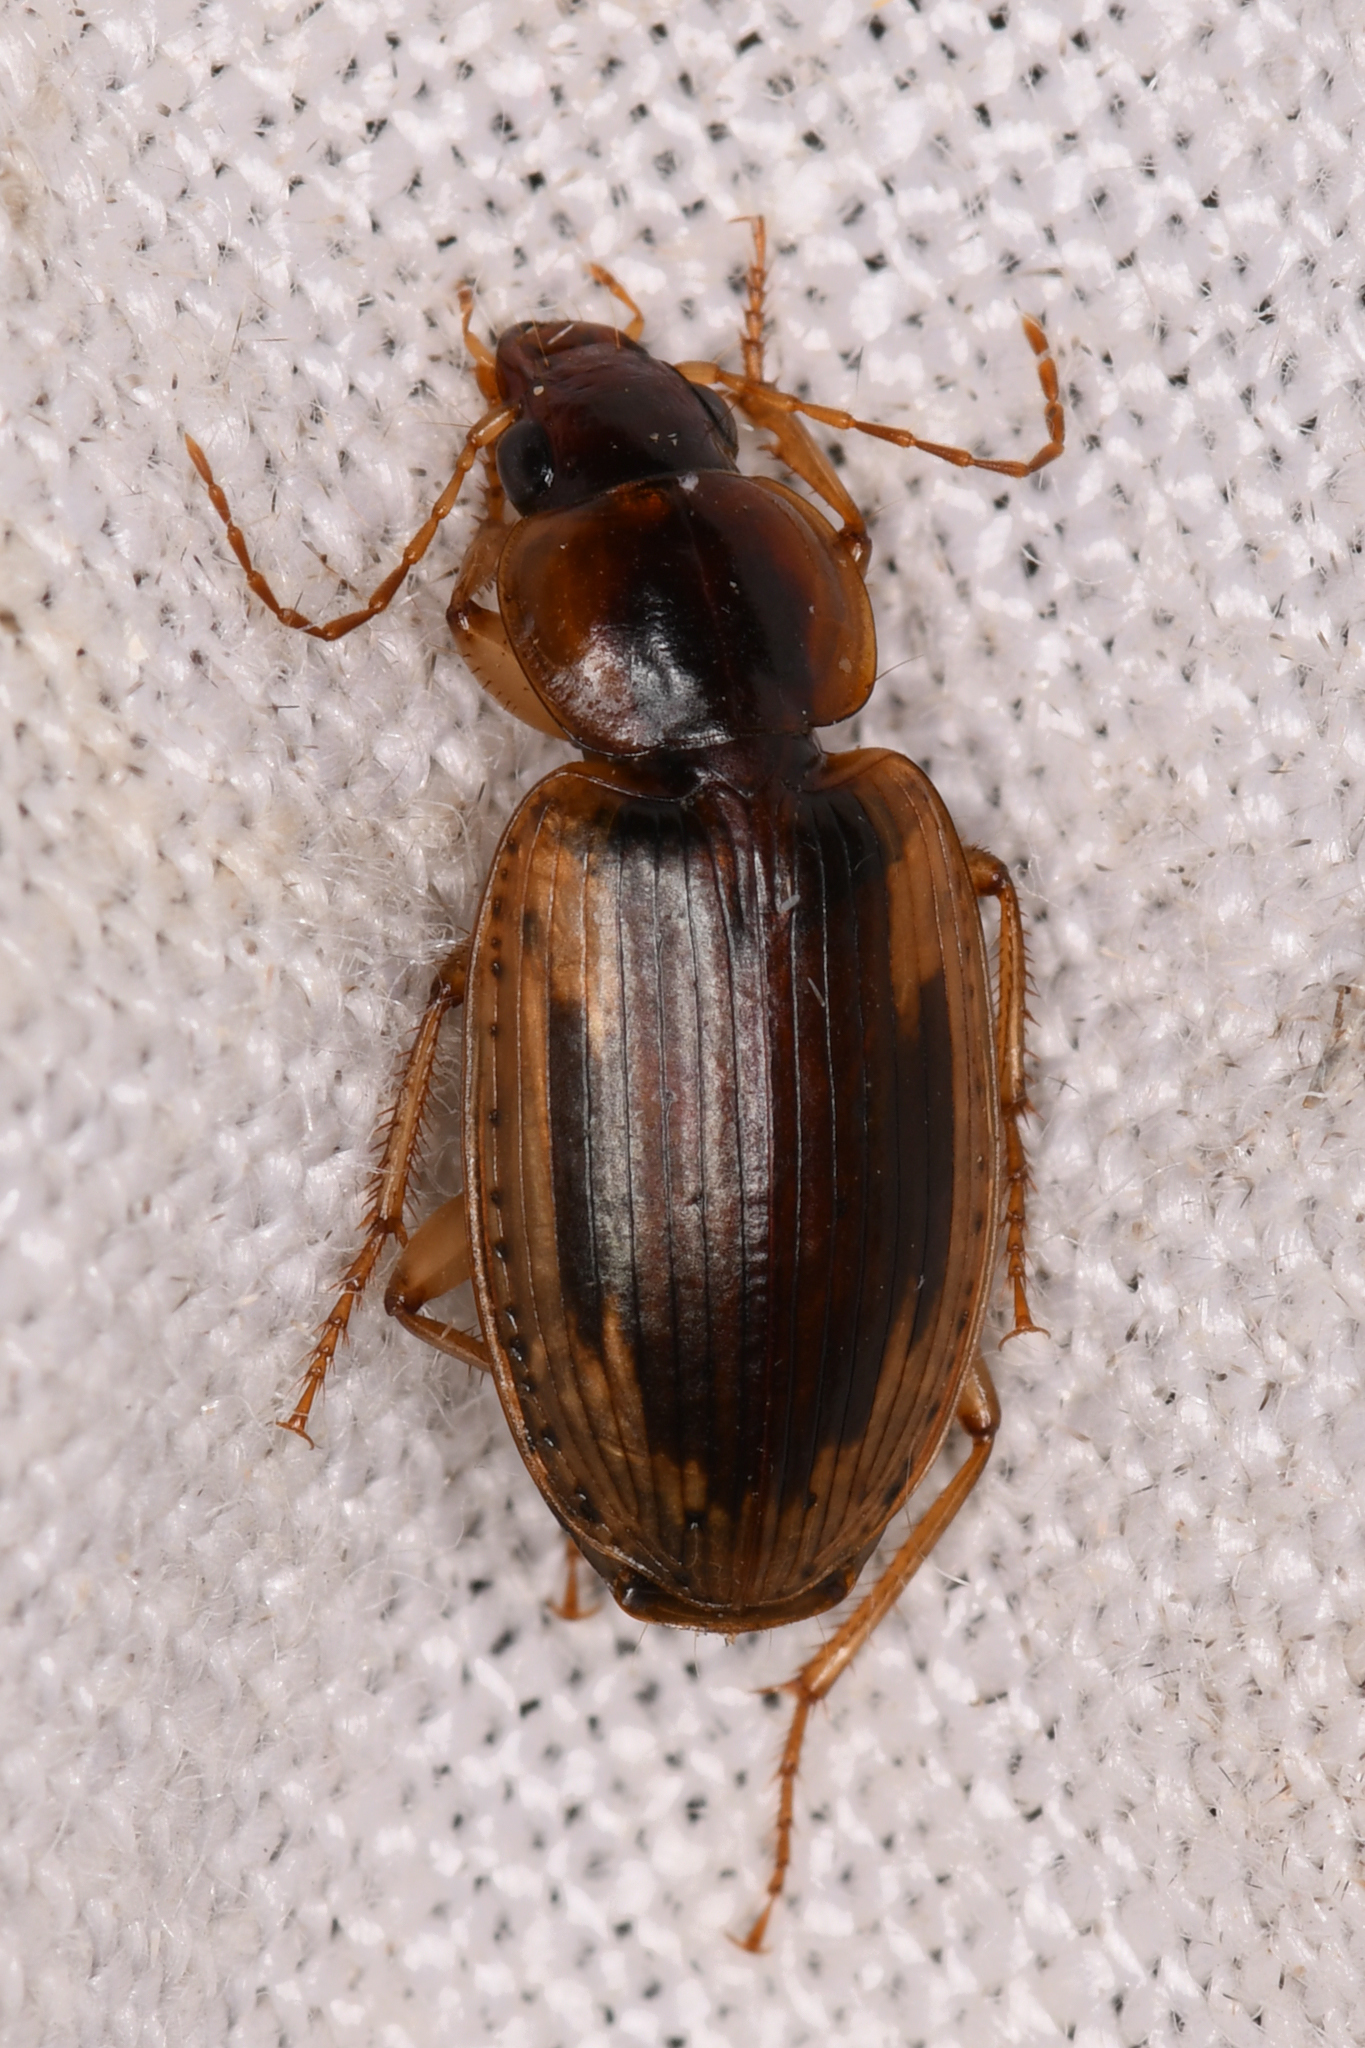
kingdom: Animalia
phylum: Arthropoda
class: Insecta
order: Coleoptera
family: Carabidae
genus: Tanystoma
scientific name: Tanystoma maculicolle
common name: Tule beetle
